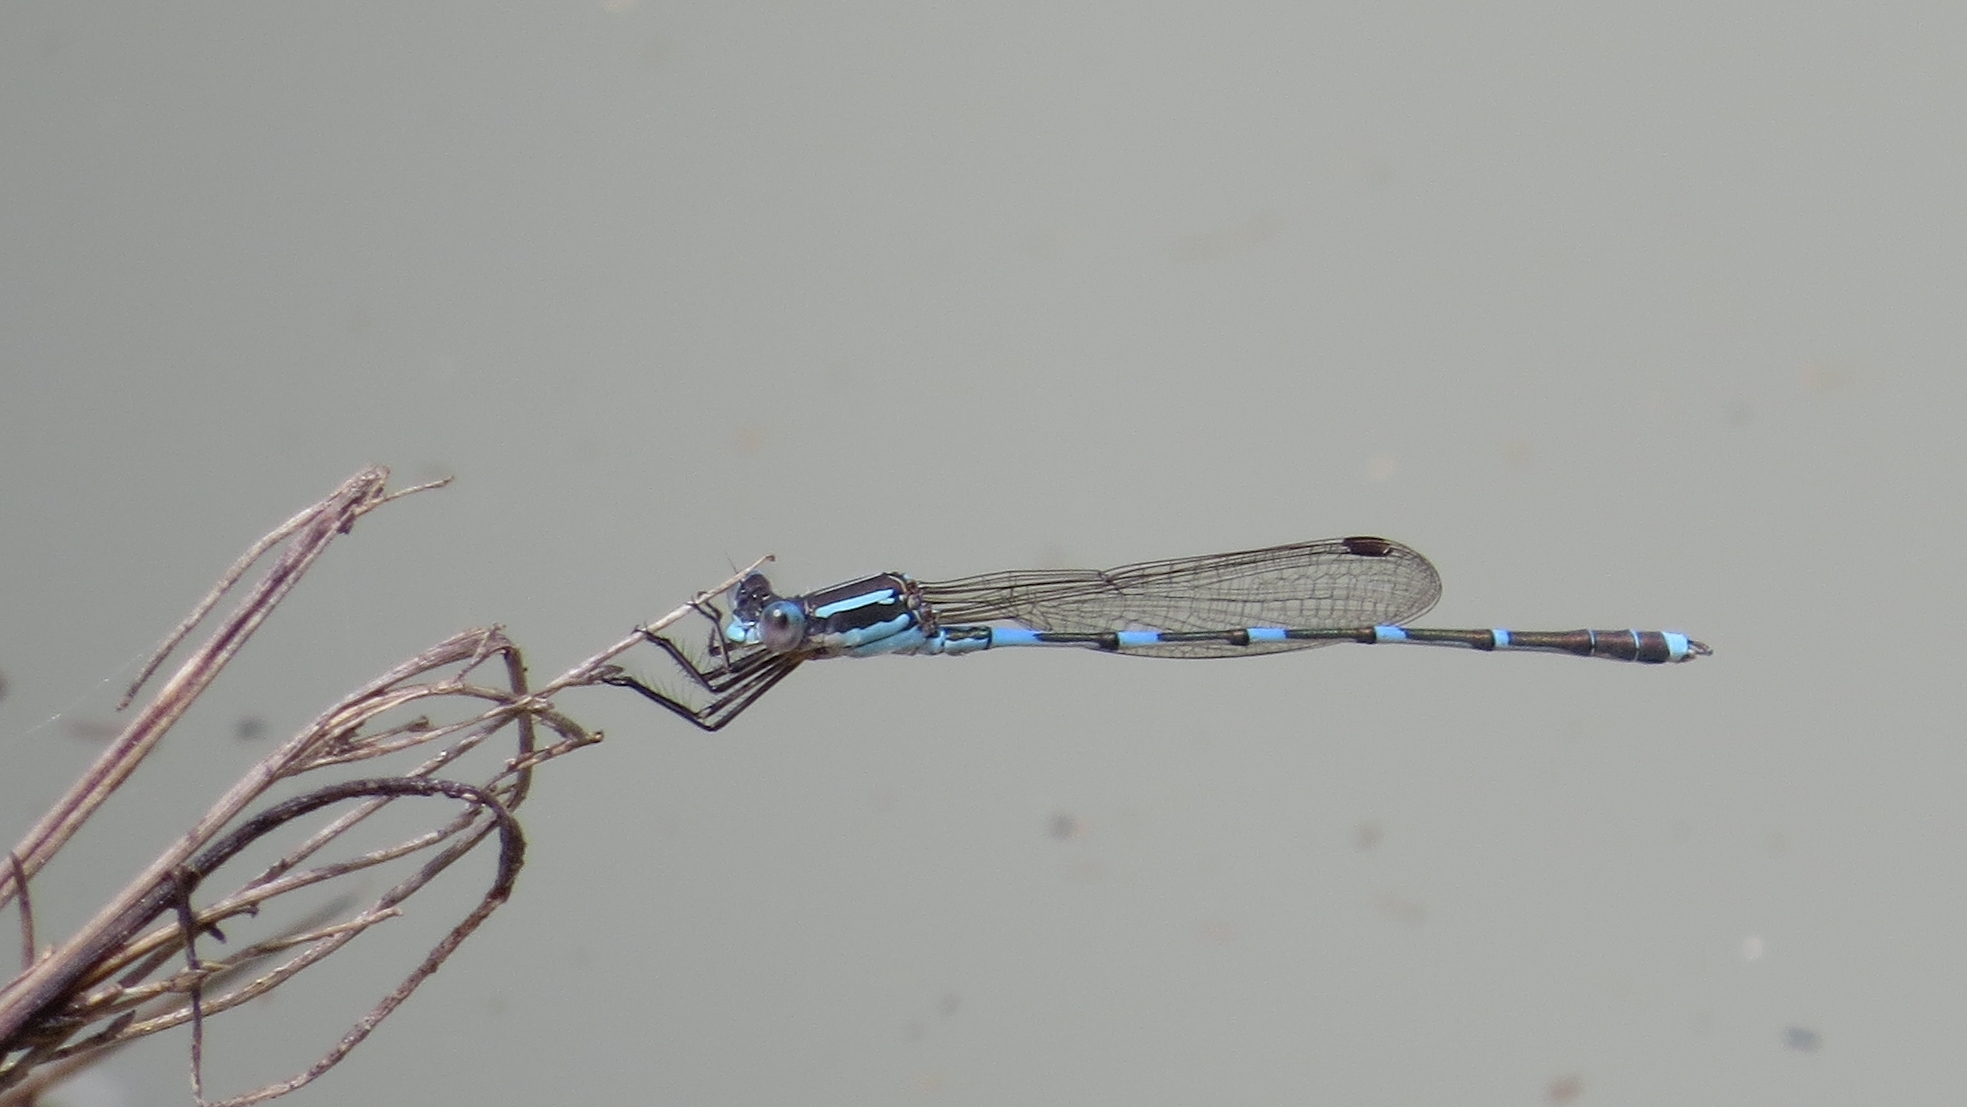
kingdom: Animalia
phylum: Arthropoda
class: Insecta
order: Odonata
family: Lestidae
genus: Austrolestes
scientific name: Austrolestes leda
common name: Wandering ringtail
